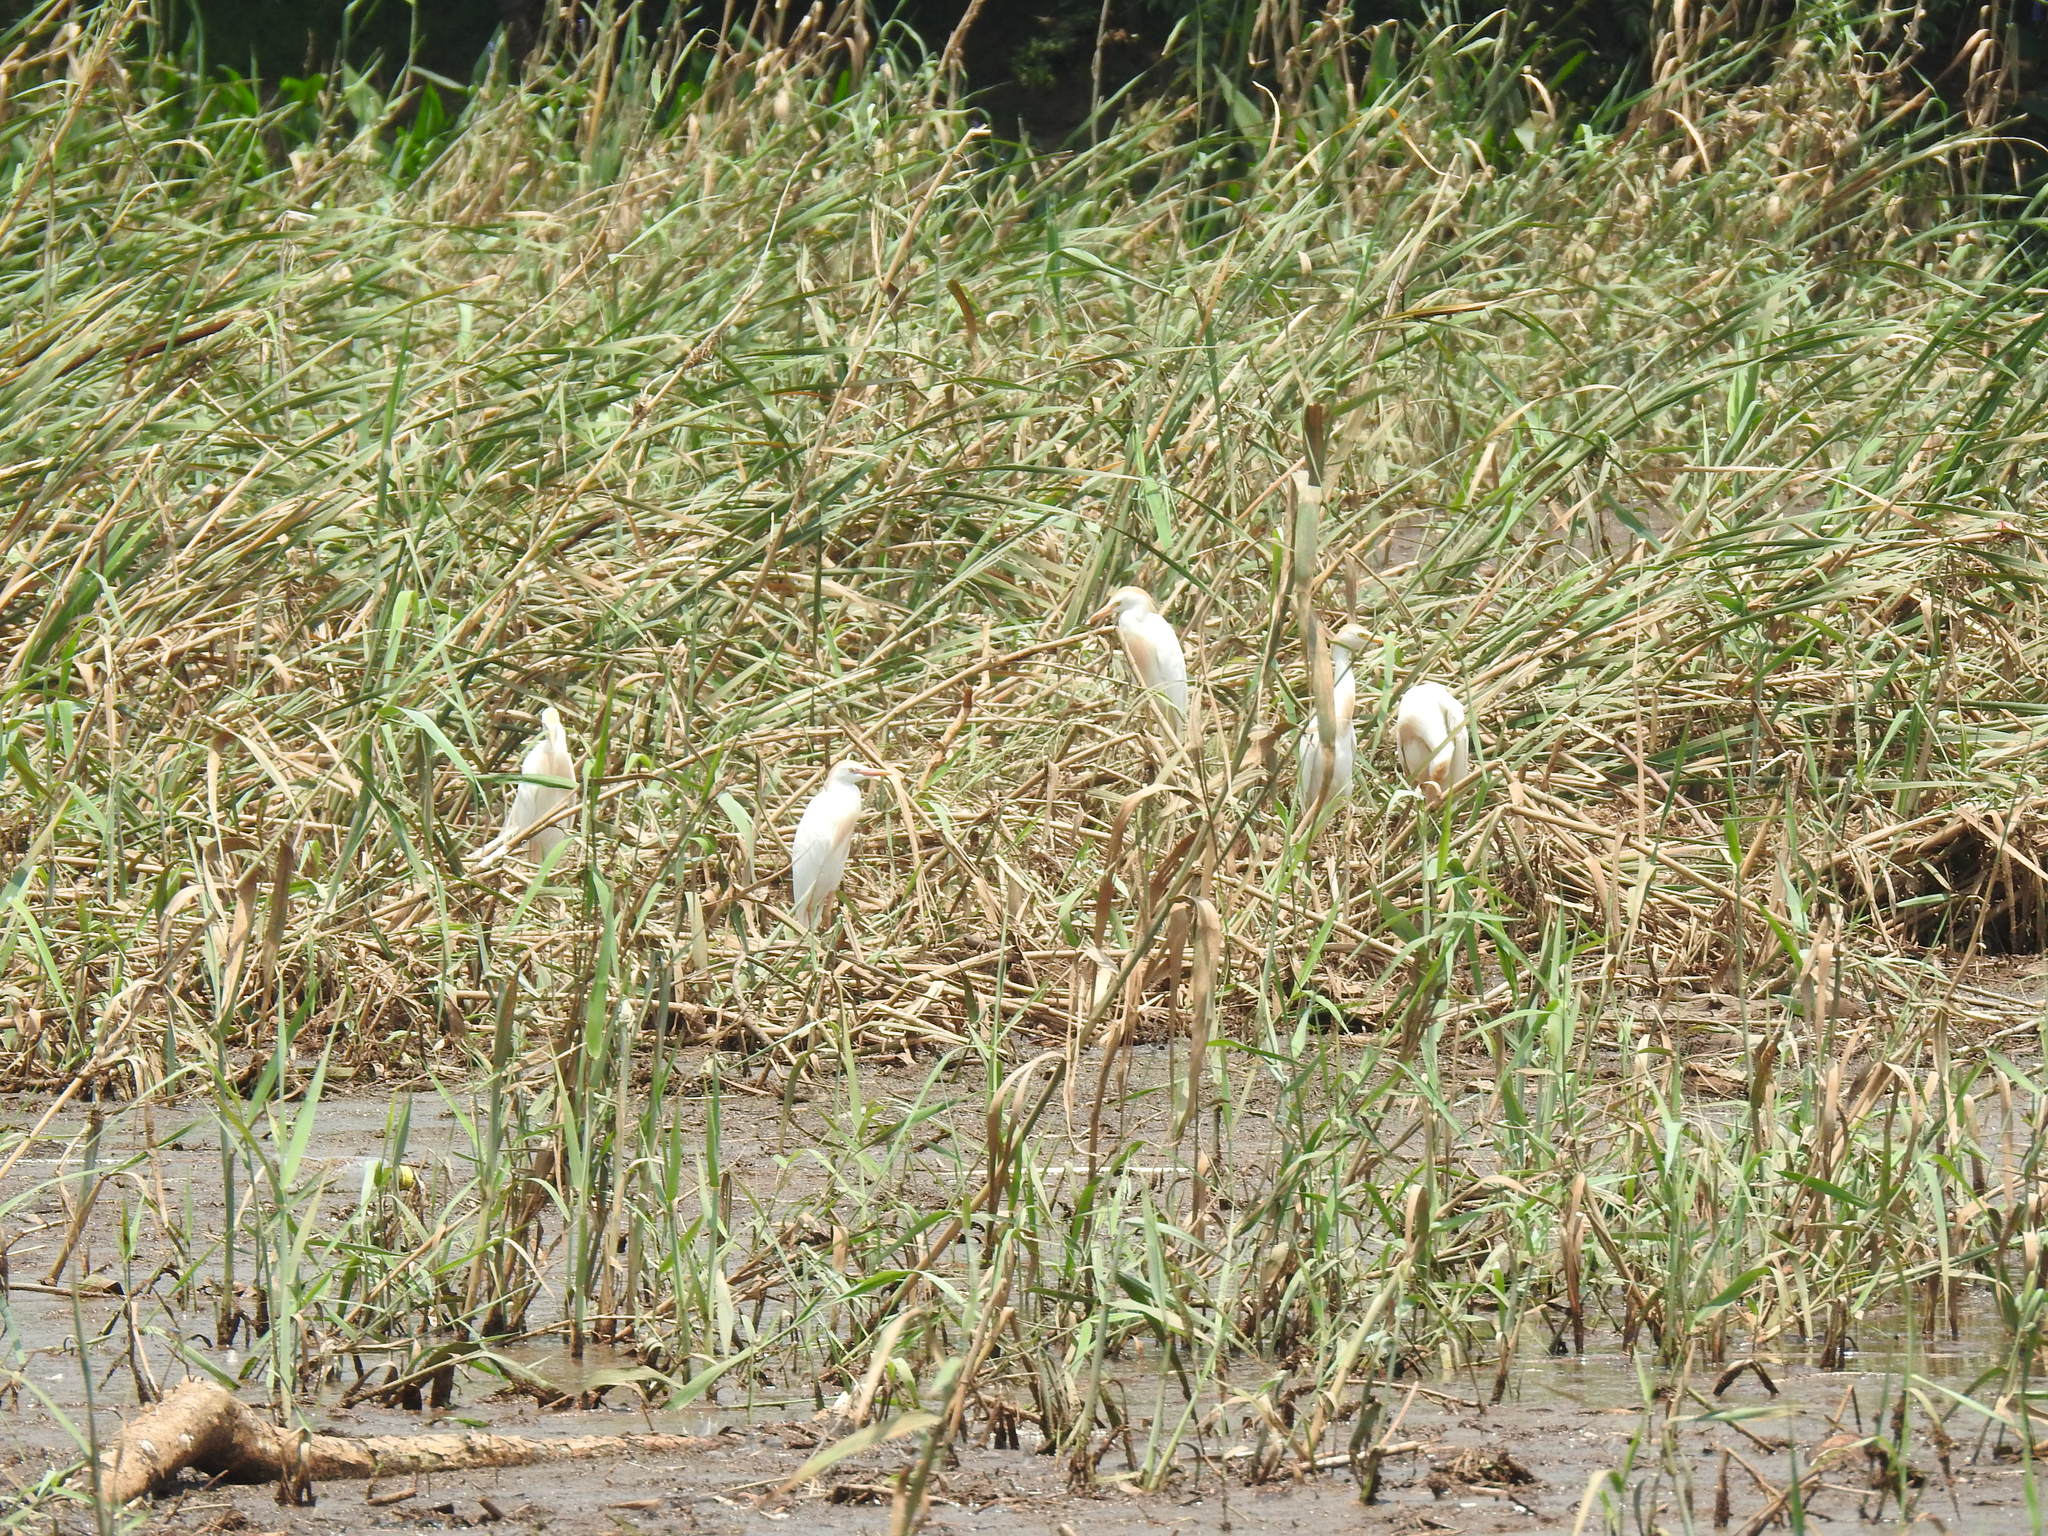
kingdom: Animalia
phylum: Chordata
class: Aves
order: Pelecaniformes
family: Ardeidae
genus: Bubulcus
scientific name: Bubulcus ibis
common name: Cattle egret
